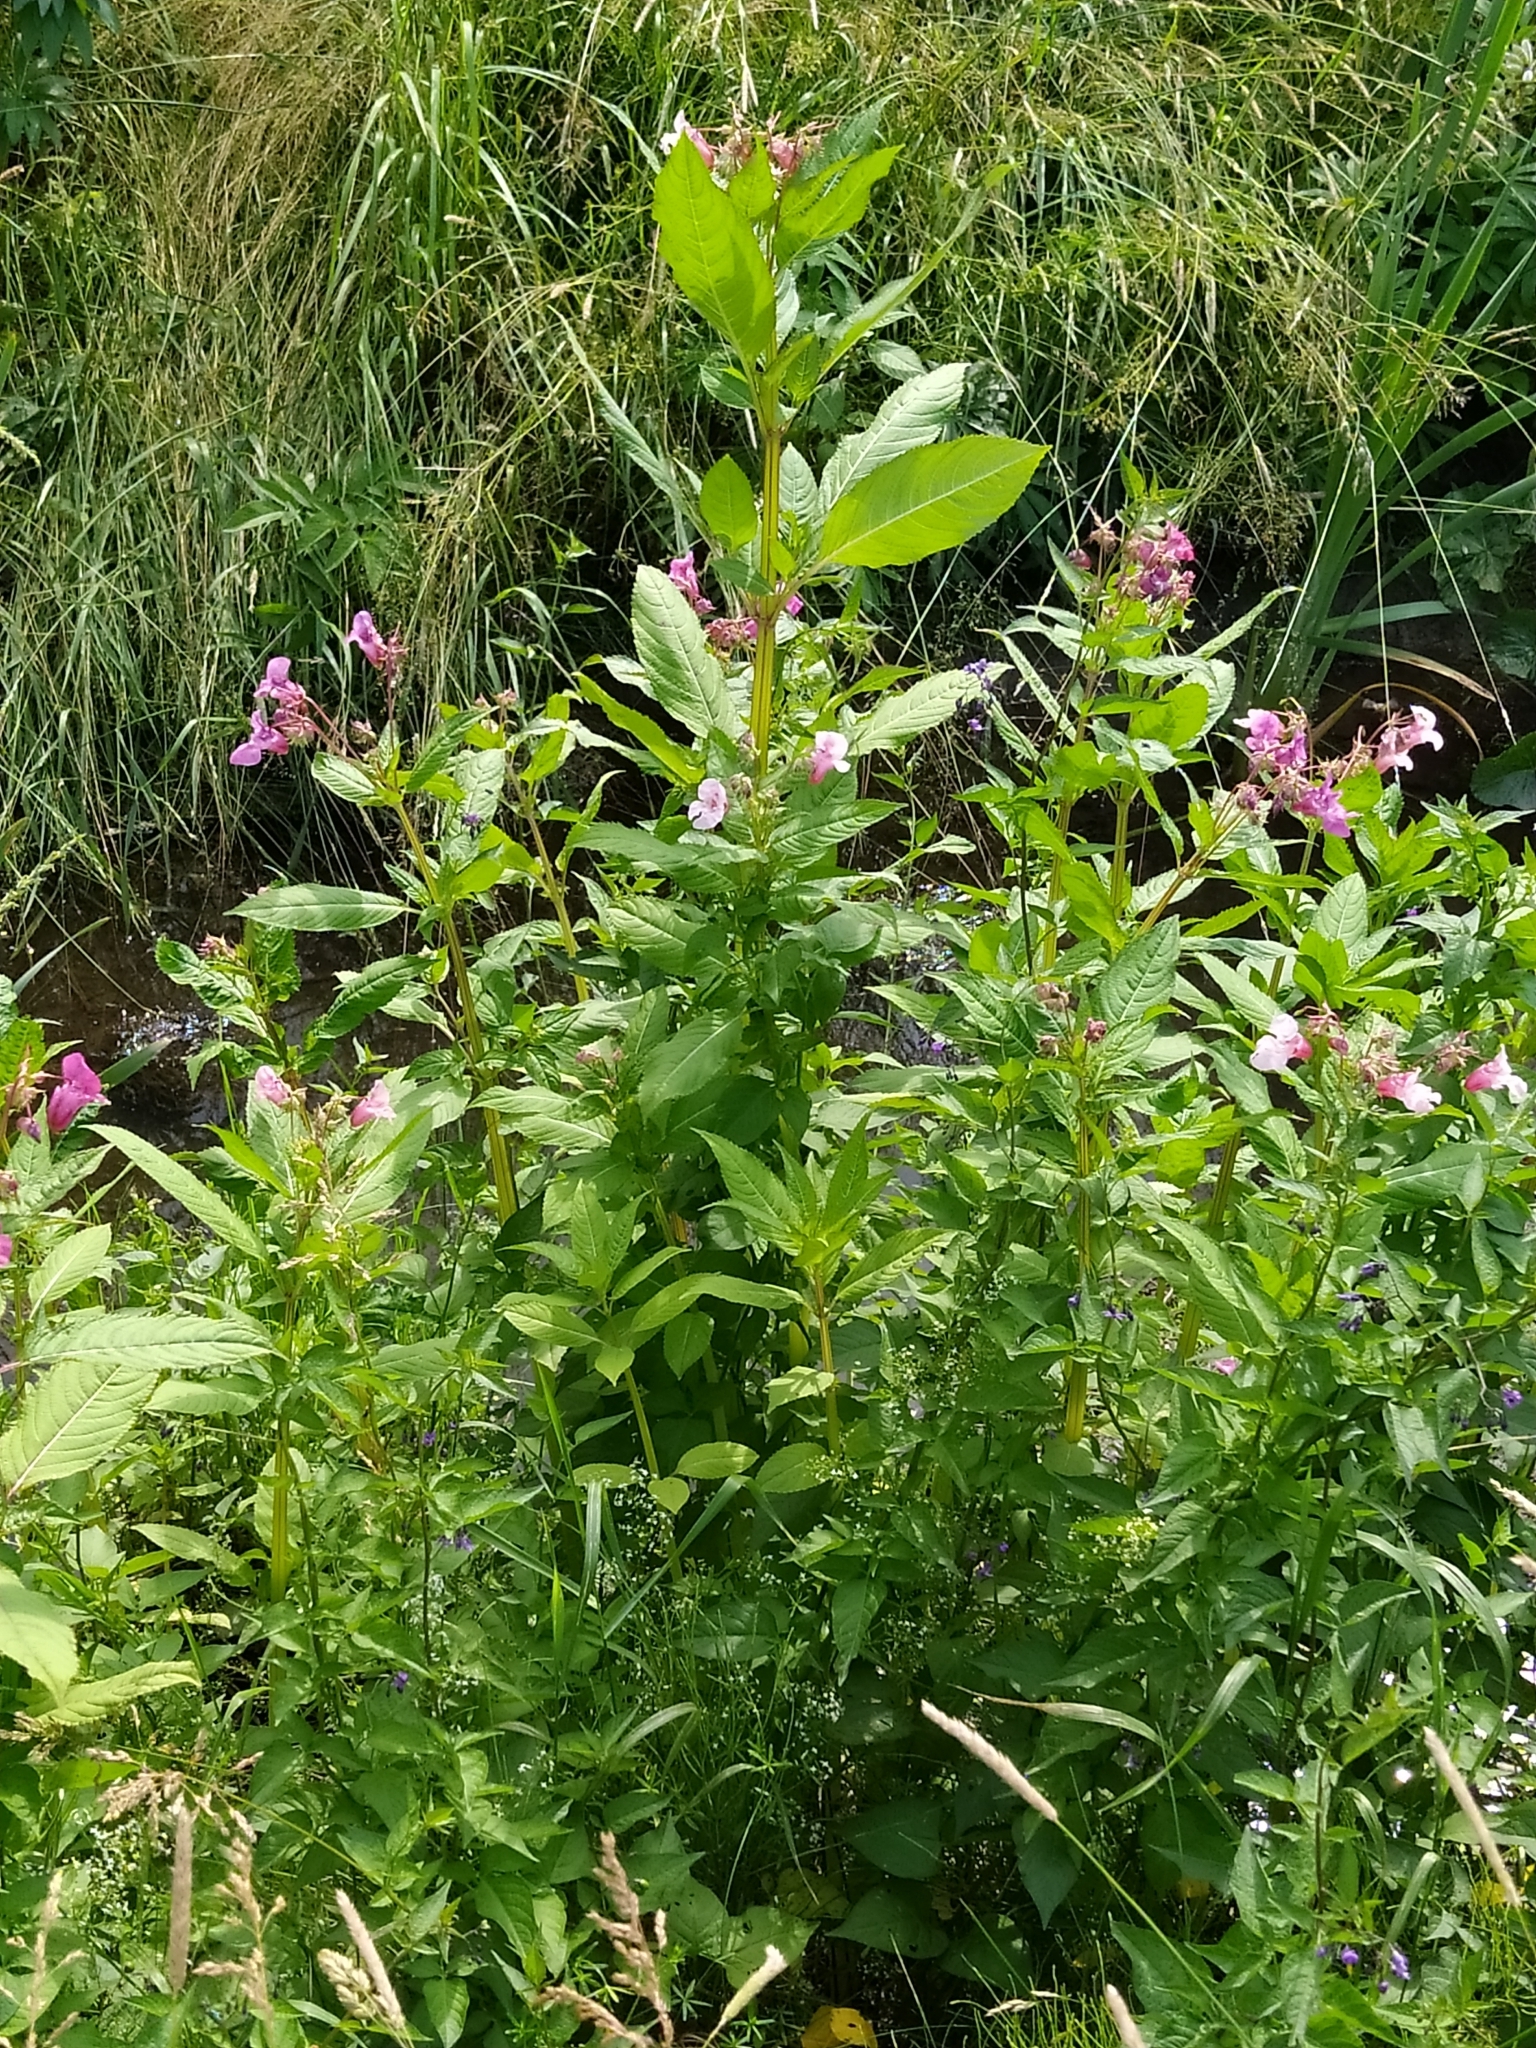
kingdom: Plantae
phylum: Tracheophyta
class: Magnoliopsida
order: Ericales
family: Balsaminaceae
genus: Impatiens
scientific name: Impatiens glandulifera
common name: Himalayan balsam
